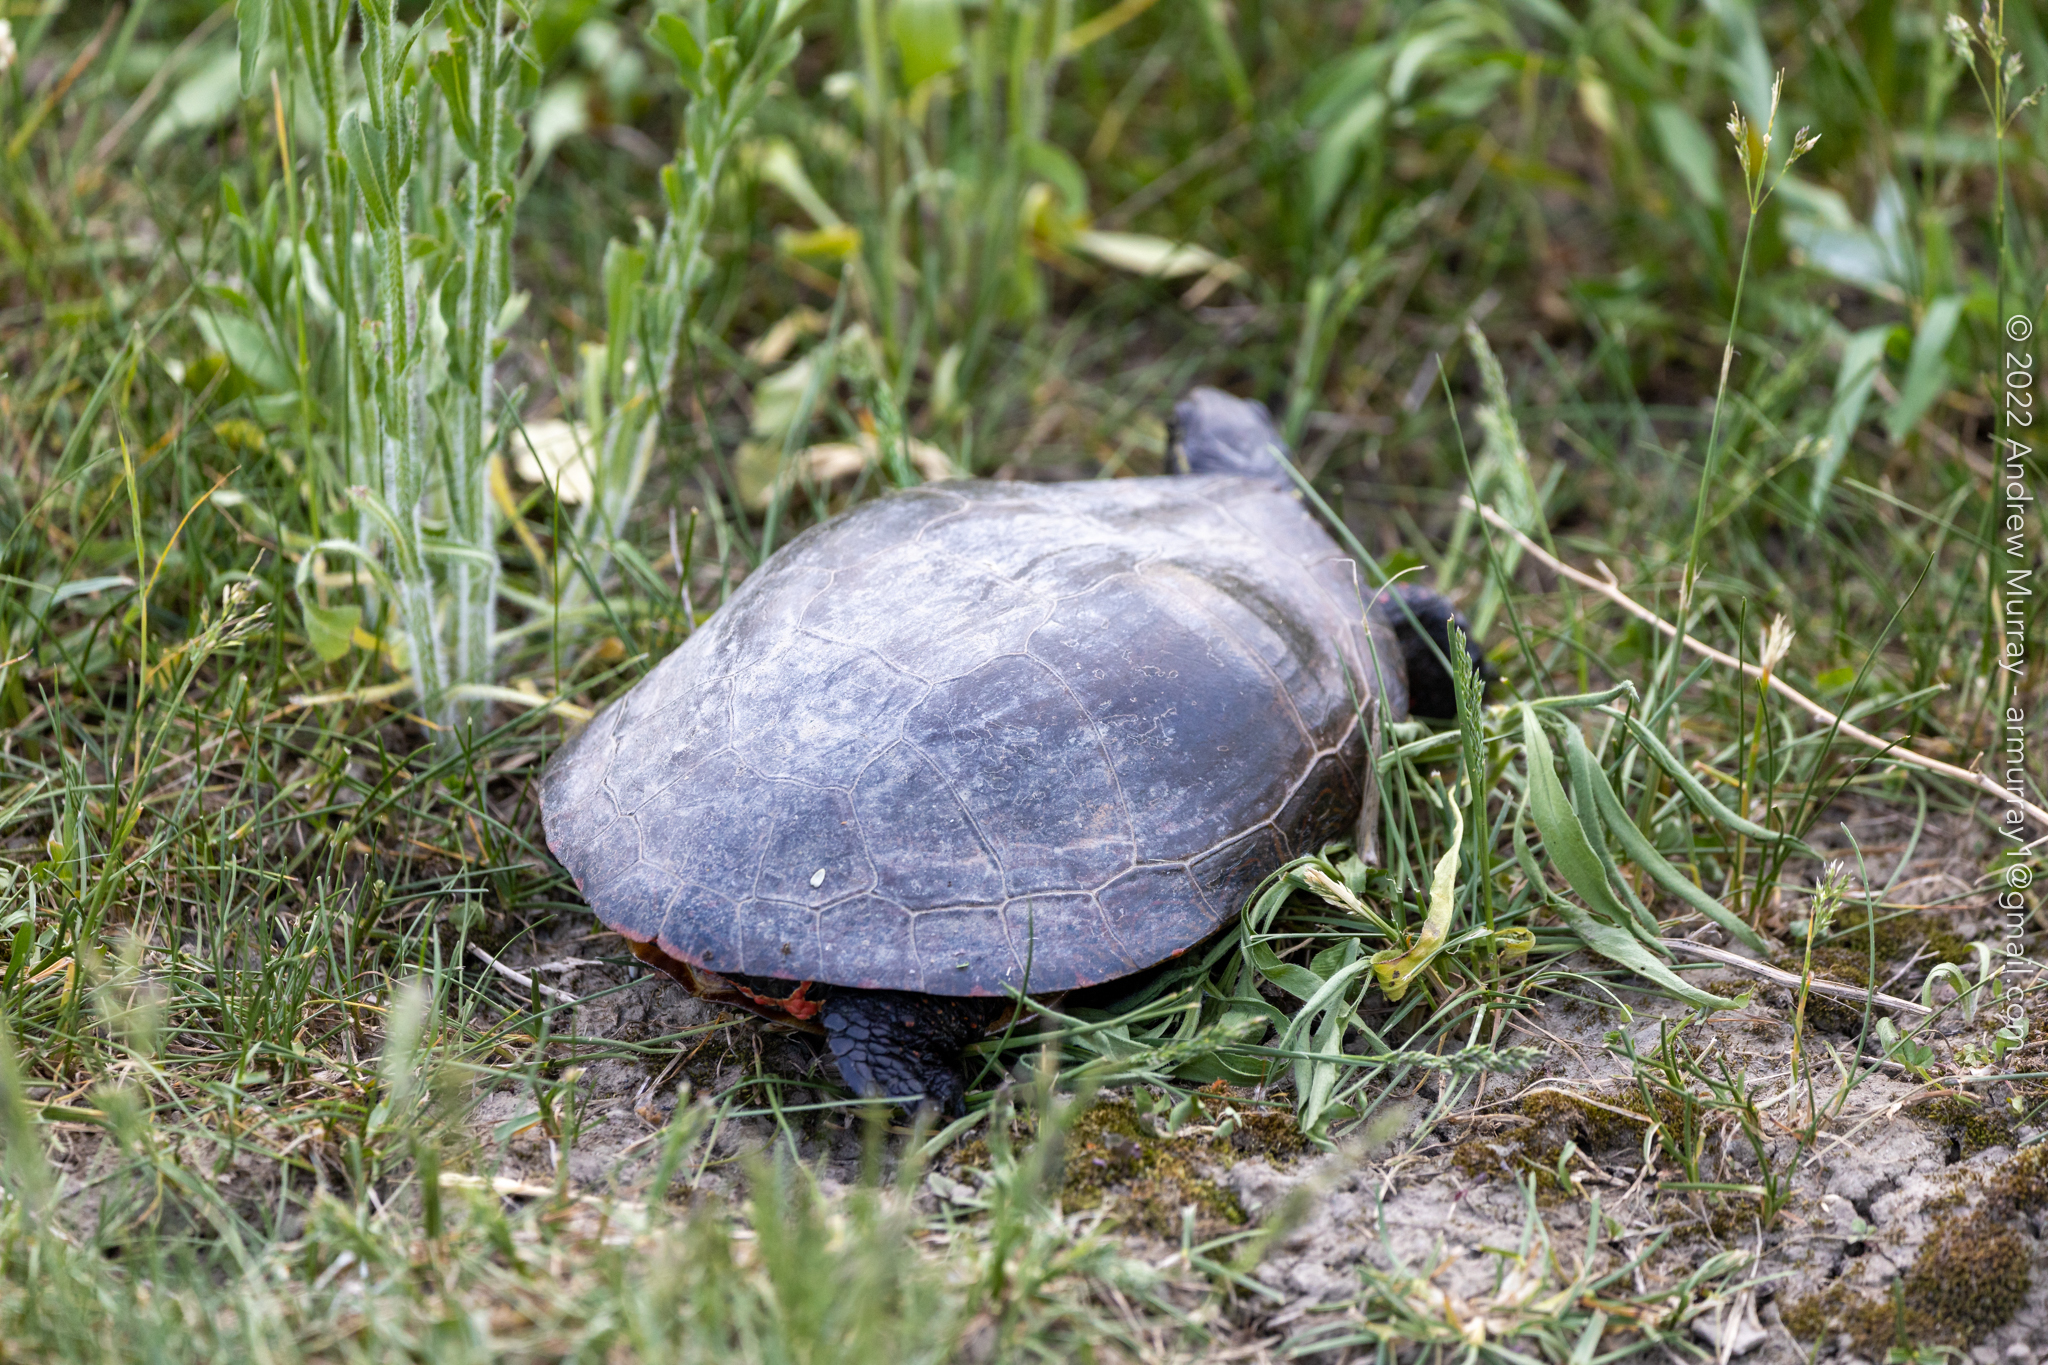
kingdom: Animalia
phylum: Chordata
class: Testudines
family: Emydidae
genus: Chrysemys
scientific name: Chrysemys picta
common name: Painted turtle
